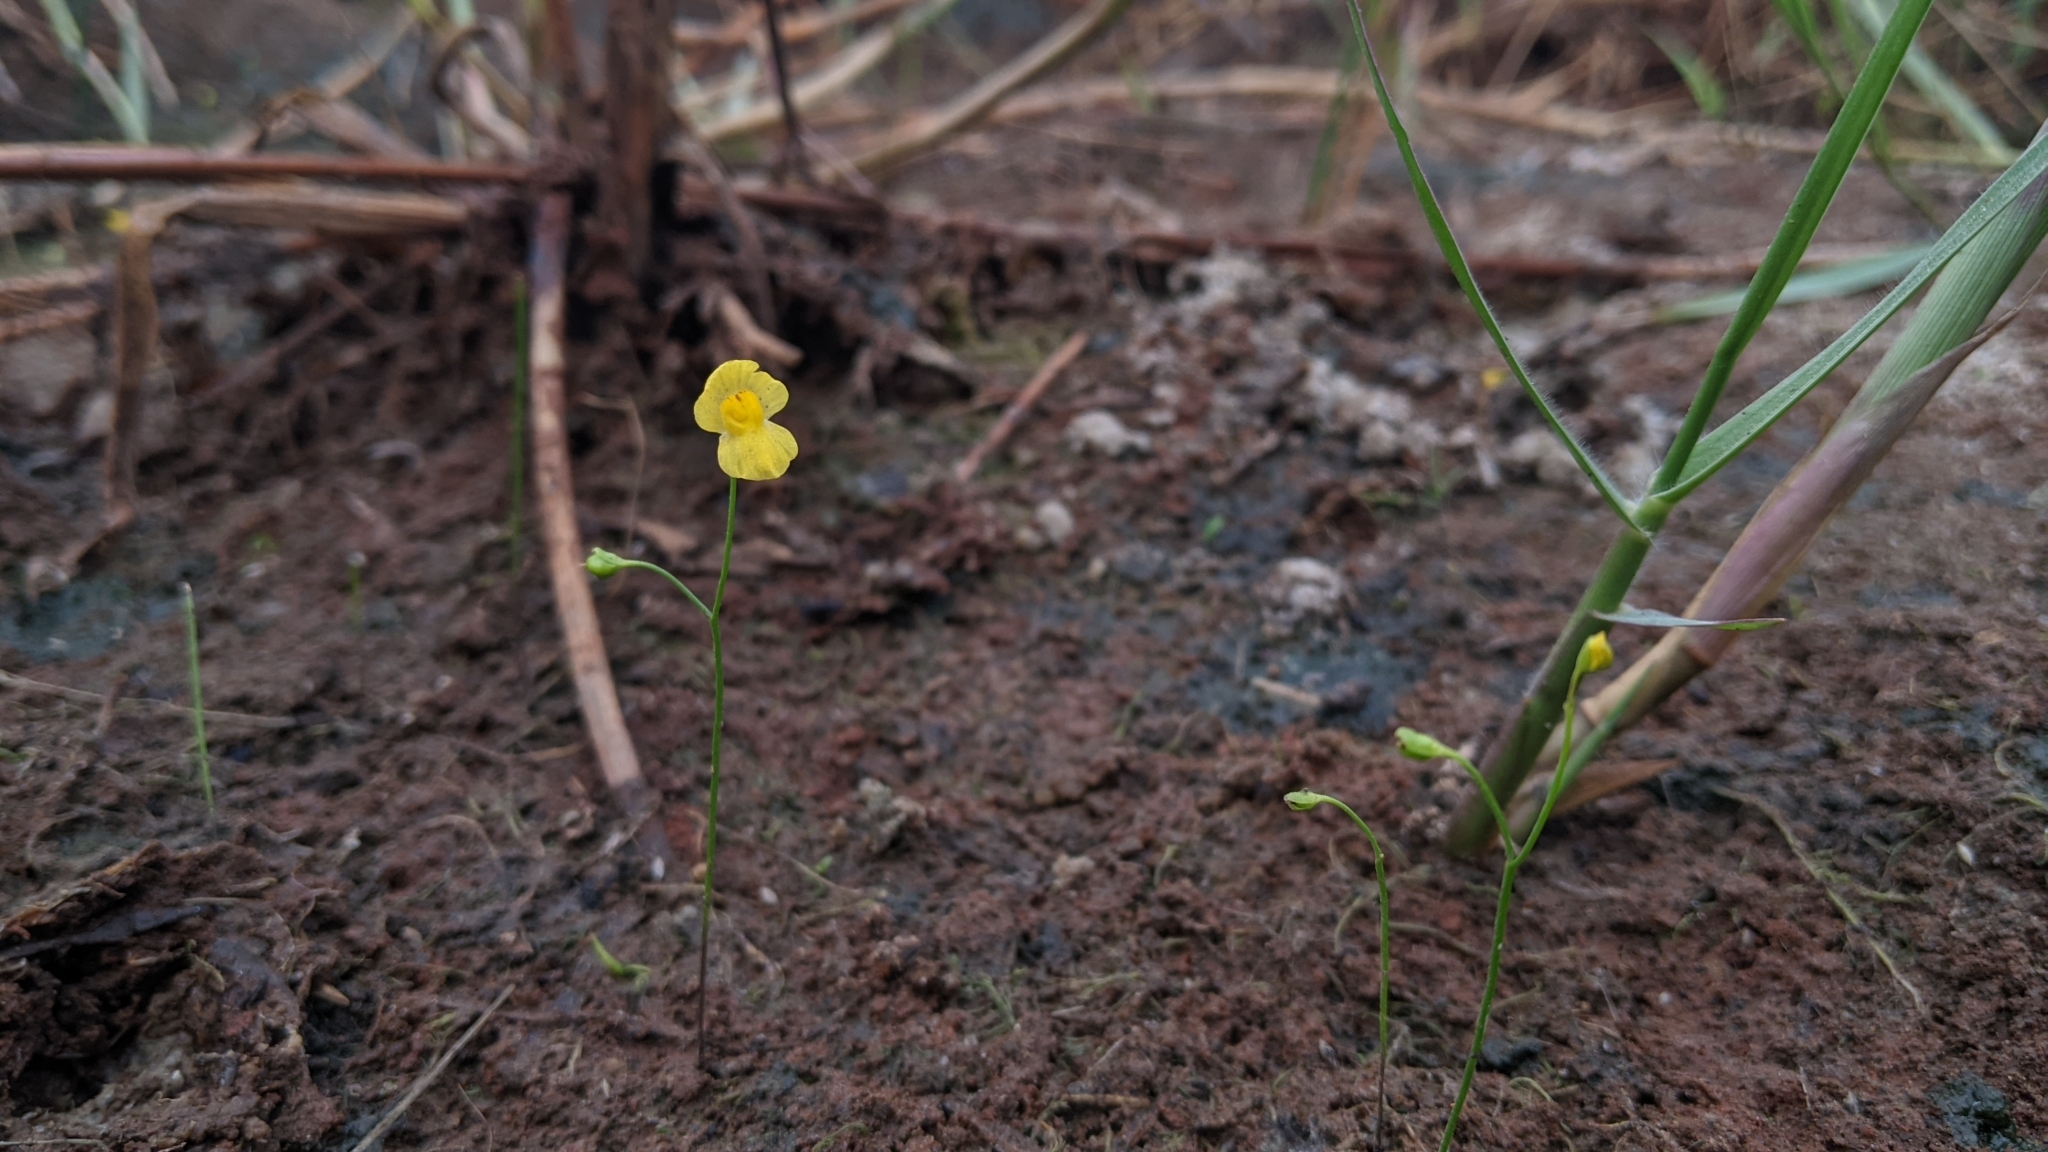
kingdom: Plantae
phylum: Tracheophyta
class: Magnoliopsida
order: Lamiales
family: Lentibulariaceae
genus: Utricularia
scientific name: Utricularia gibba
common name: Humped bladderwort
